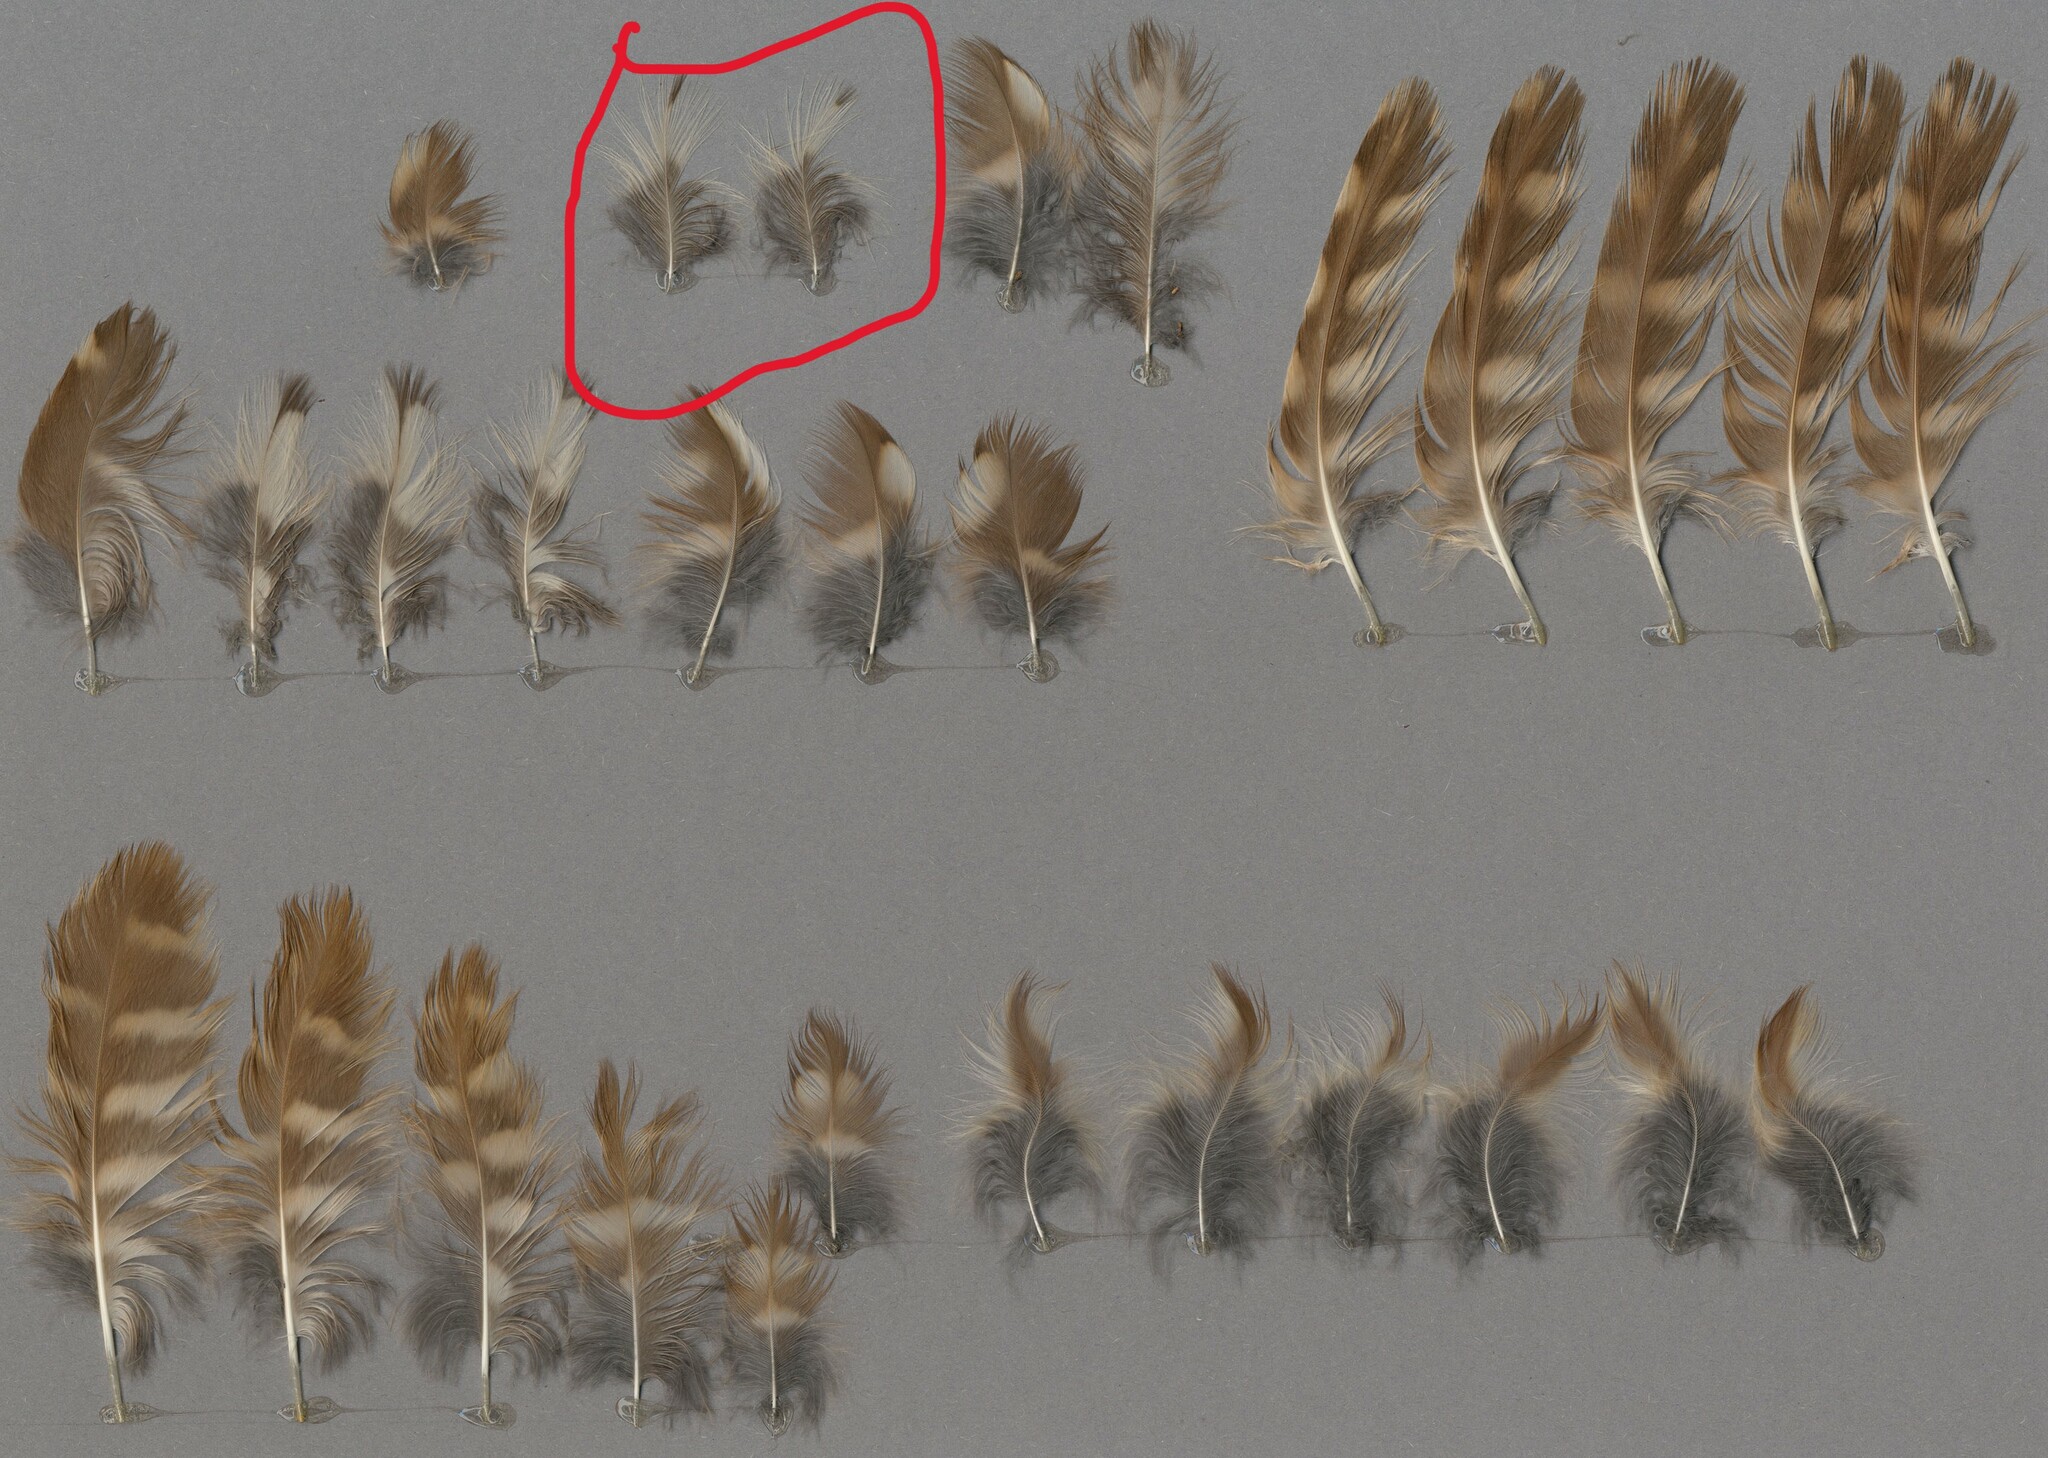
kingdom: Animalia
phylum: Chordata
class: Aves
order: Passeriformes
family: Turdidae
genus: Turdus
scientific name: Turdus philomelos
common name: Song thrush
